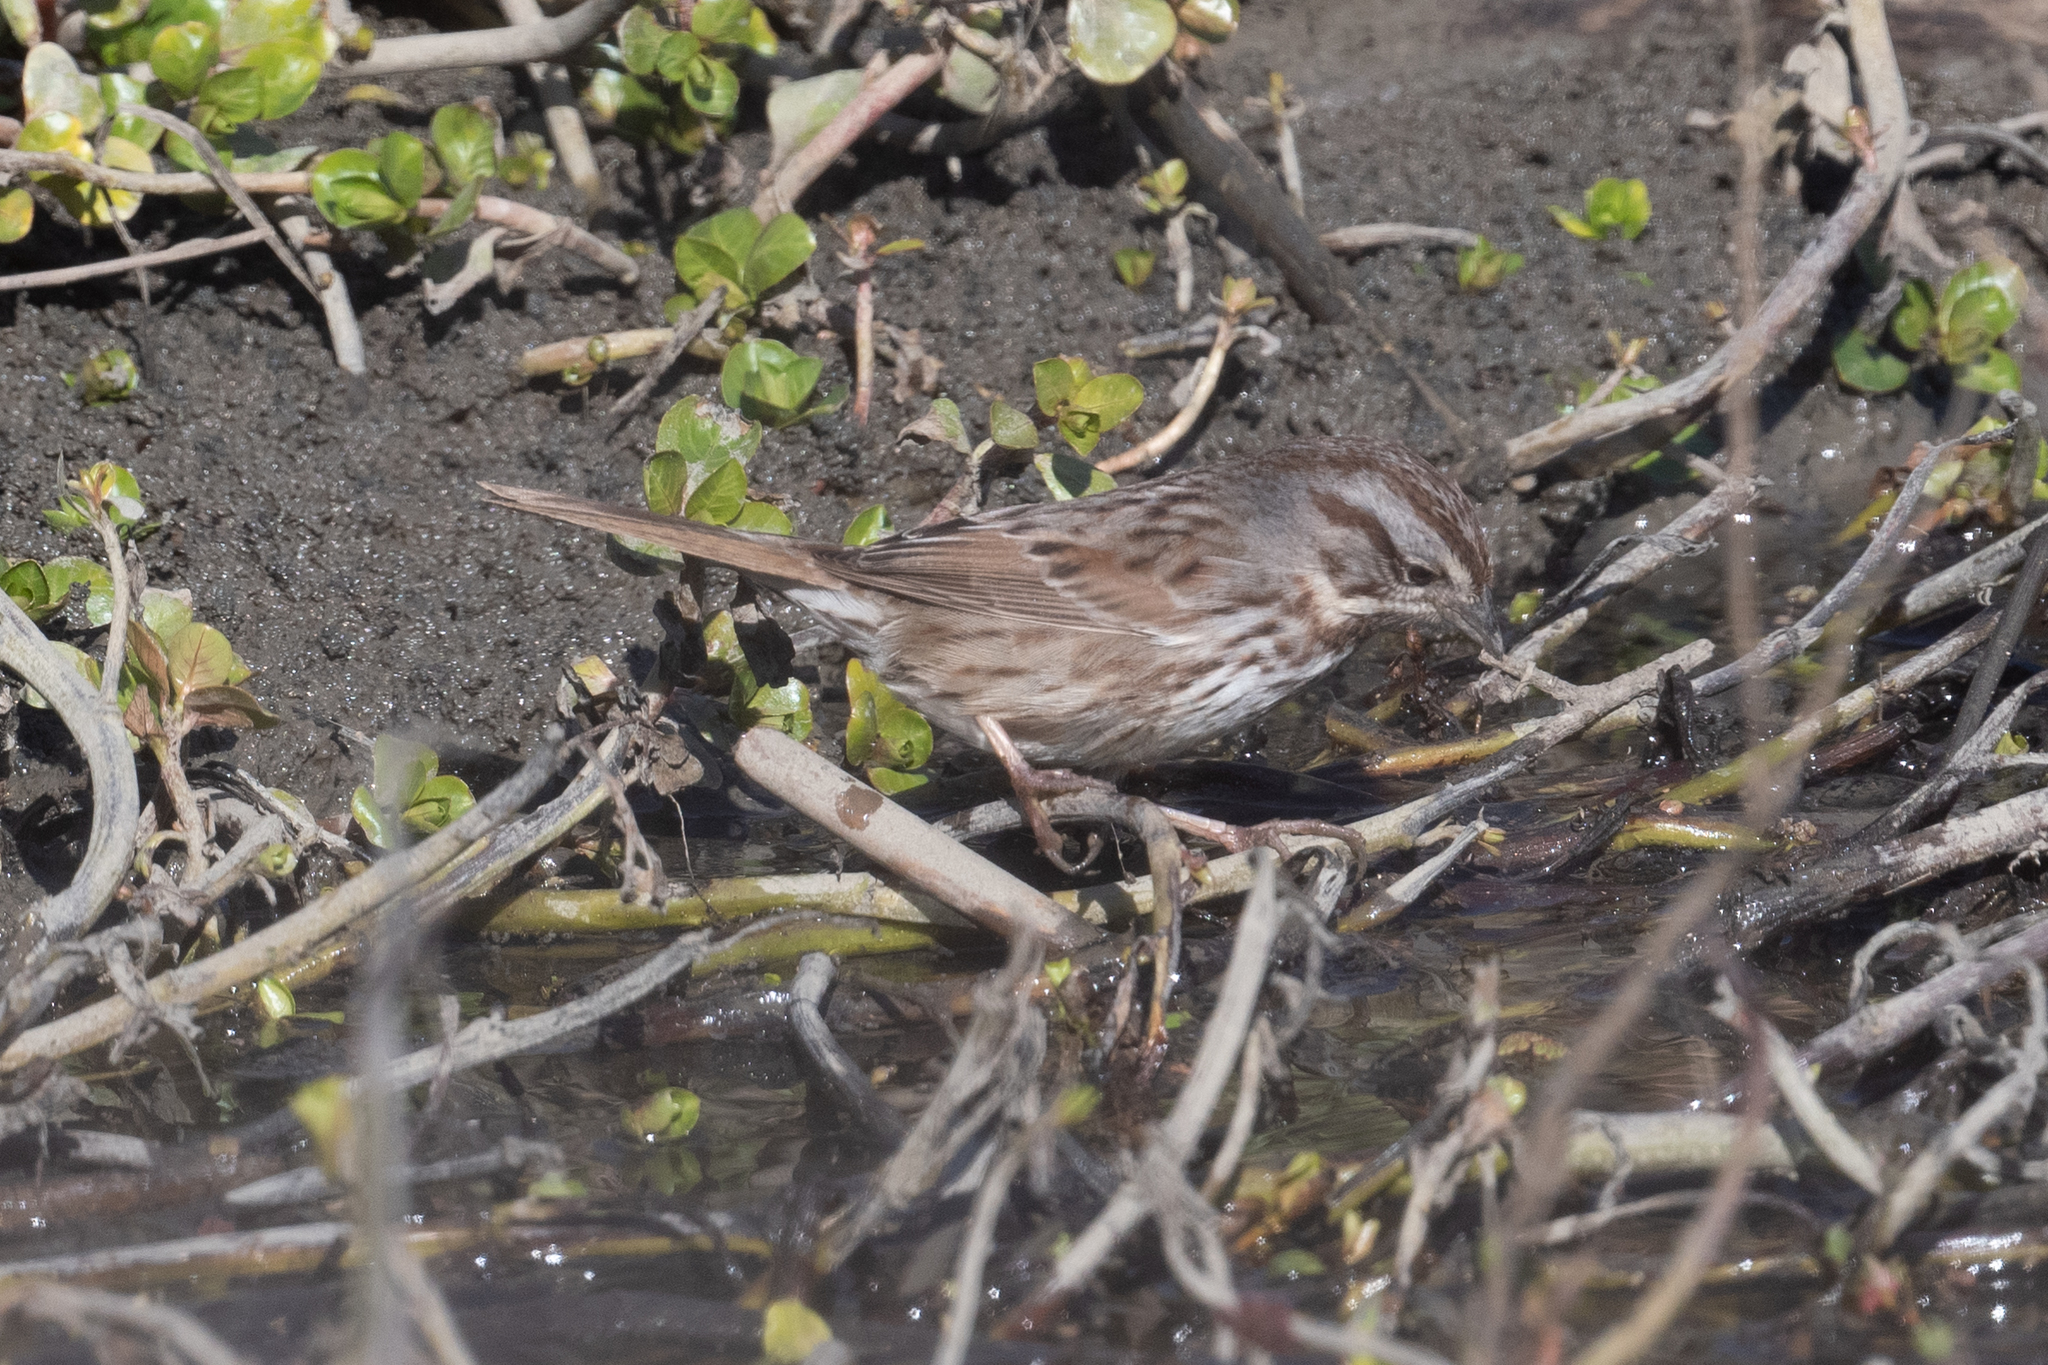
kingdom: Animalia
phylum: Chordata
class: Aves
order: Passeriformes
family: Passerellidae
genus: Melospiza
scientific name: Melospiza melodia
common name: Song sparrow
